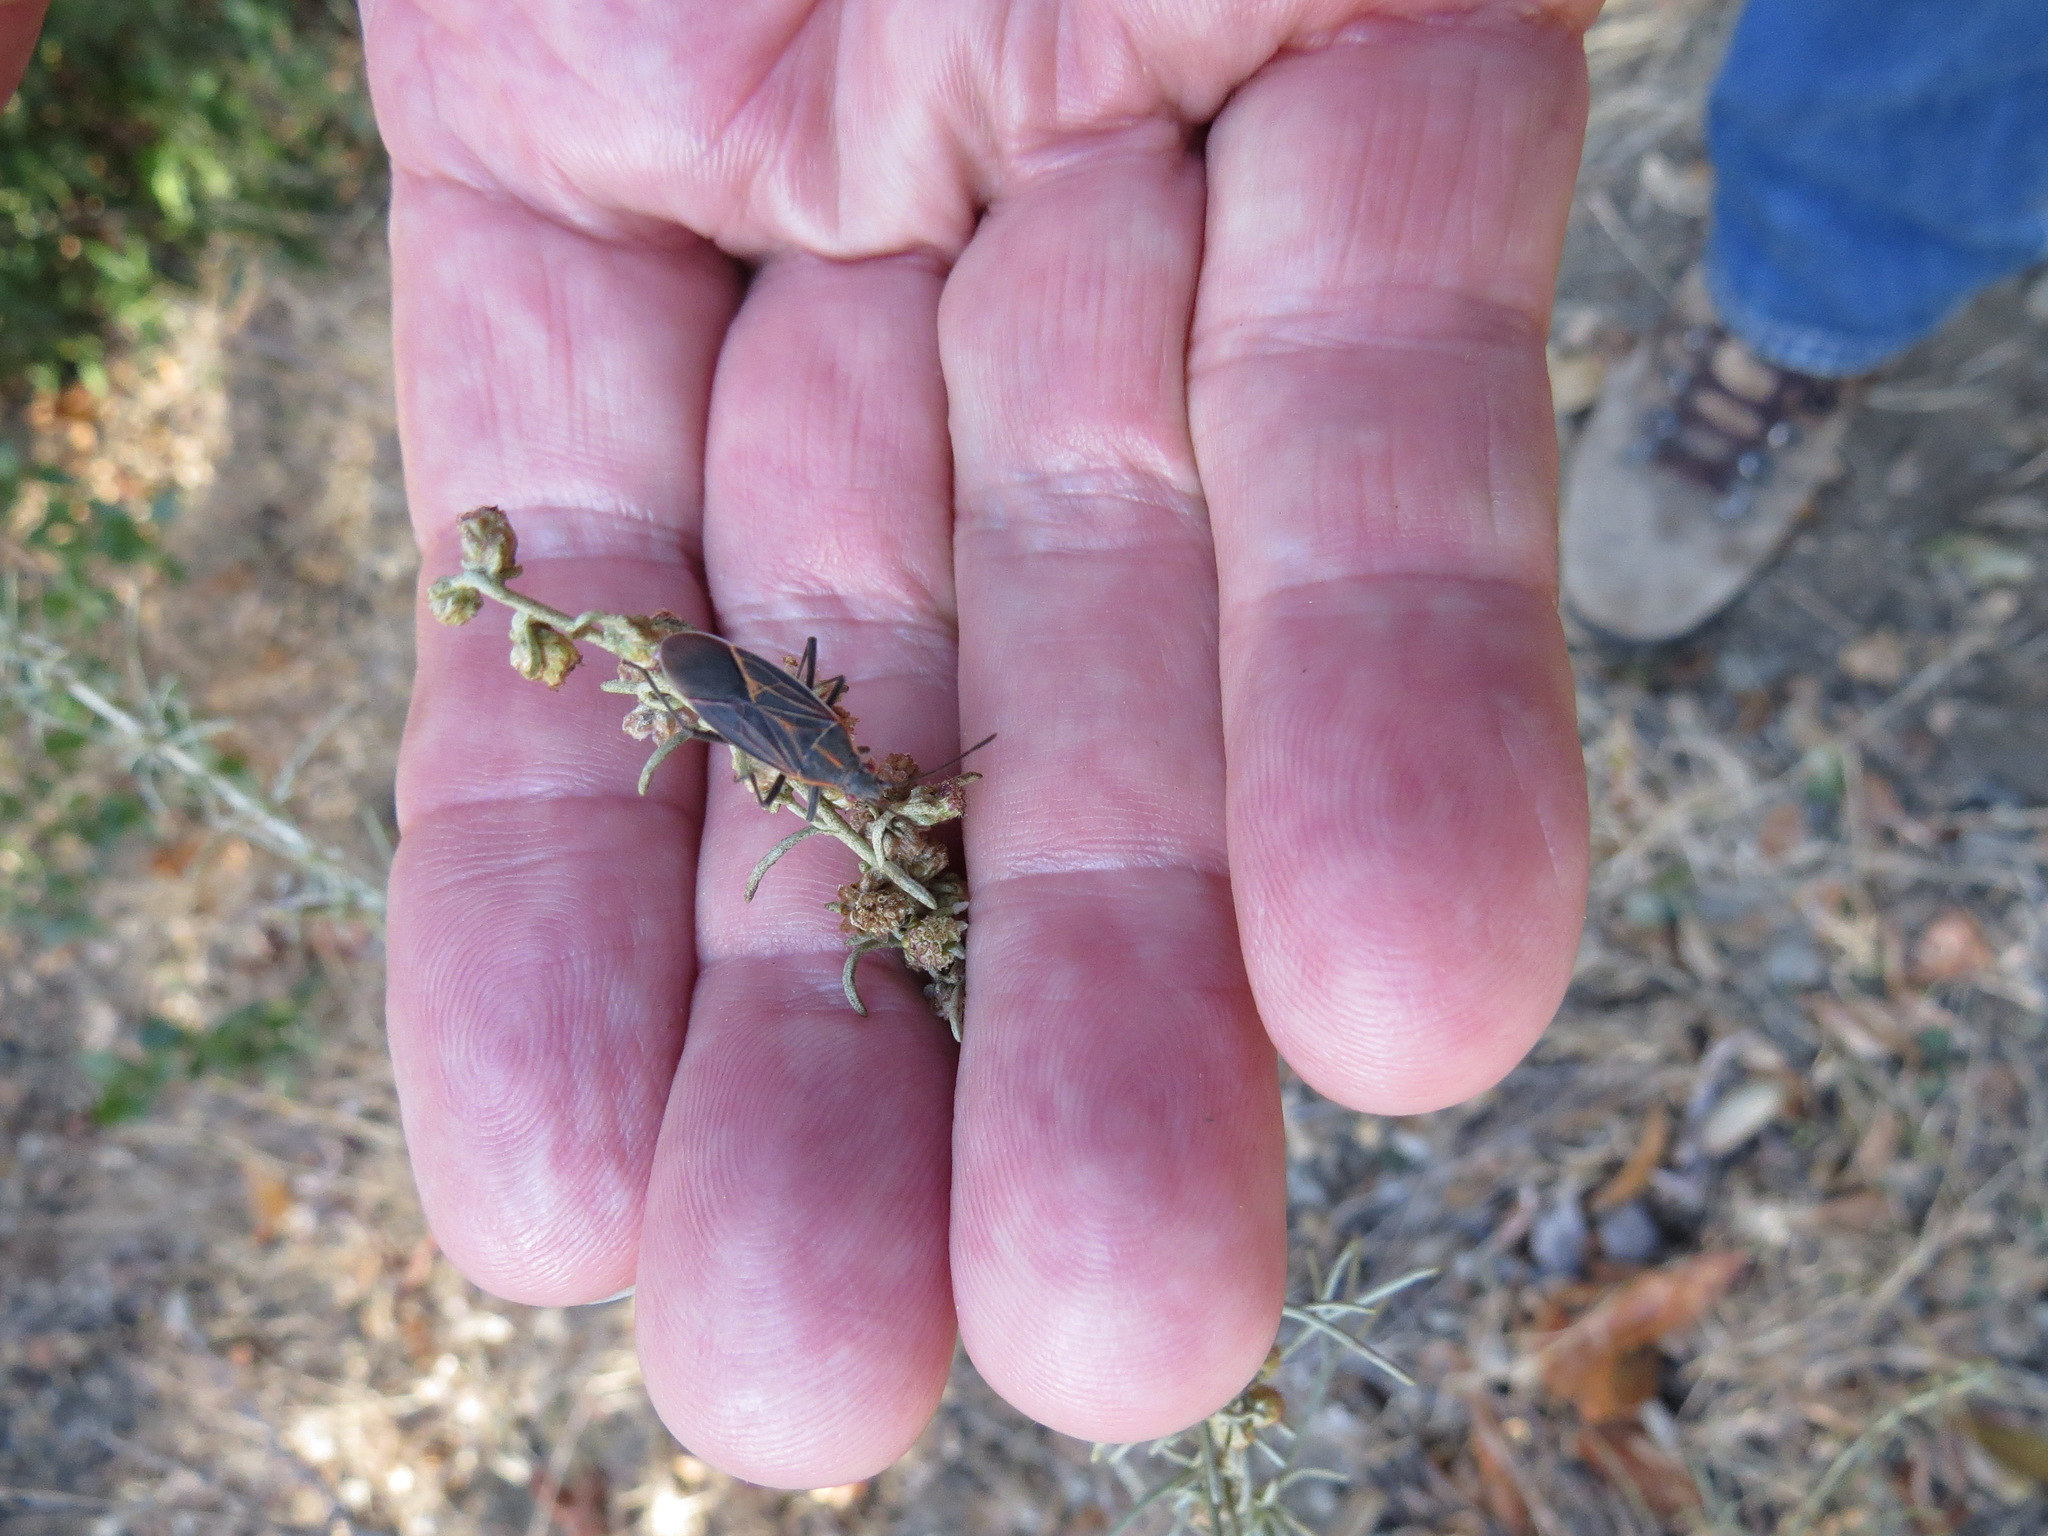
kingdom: Animalia
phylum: Arthropoda
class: Insecta
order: Hemiptera
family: Rhopalidae
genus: Boisea
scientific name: Boisea rubrolineata
